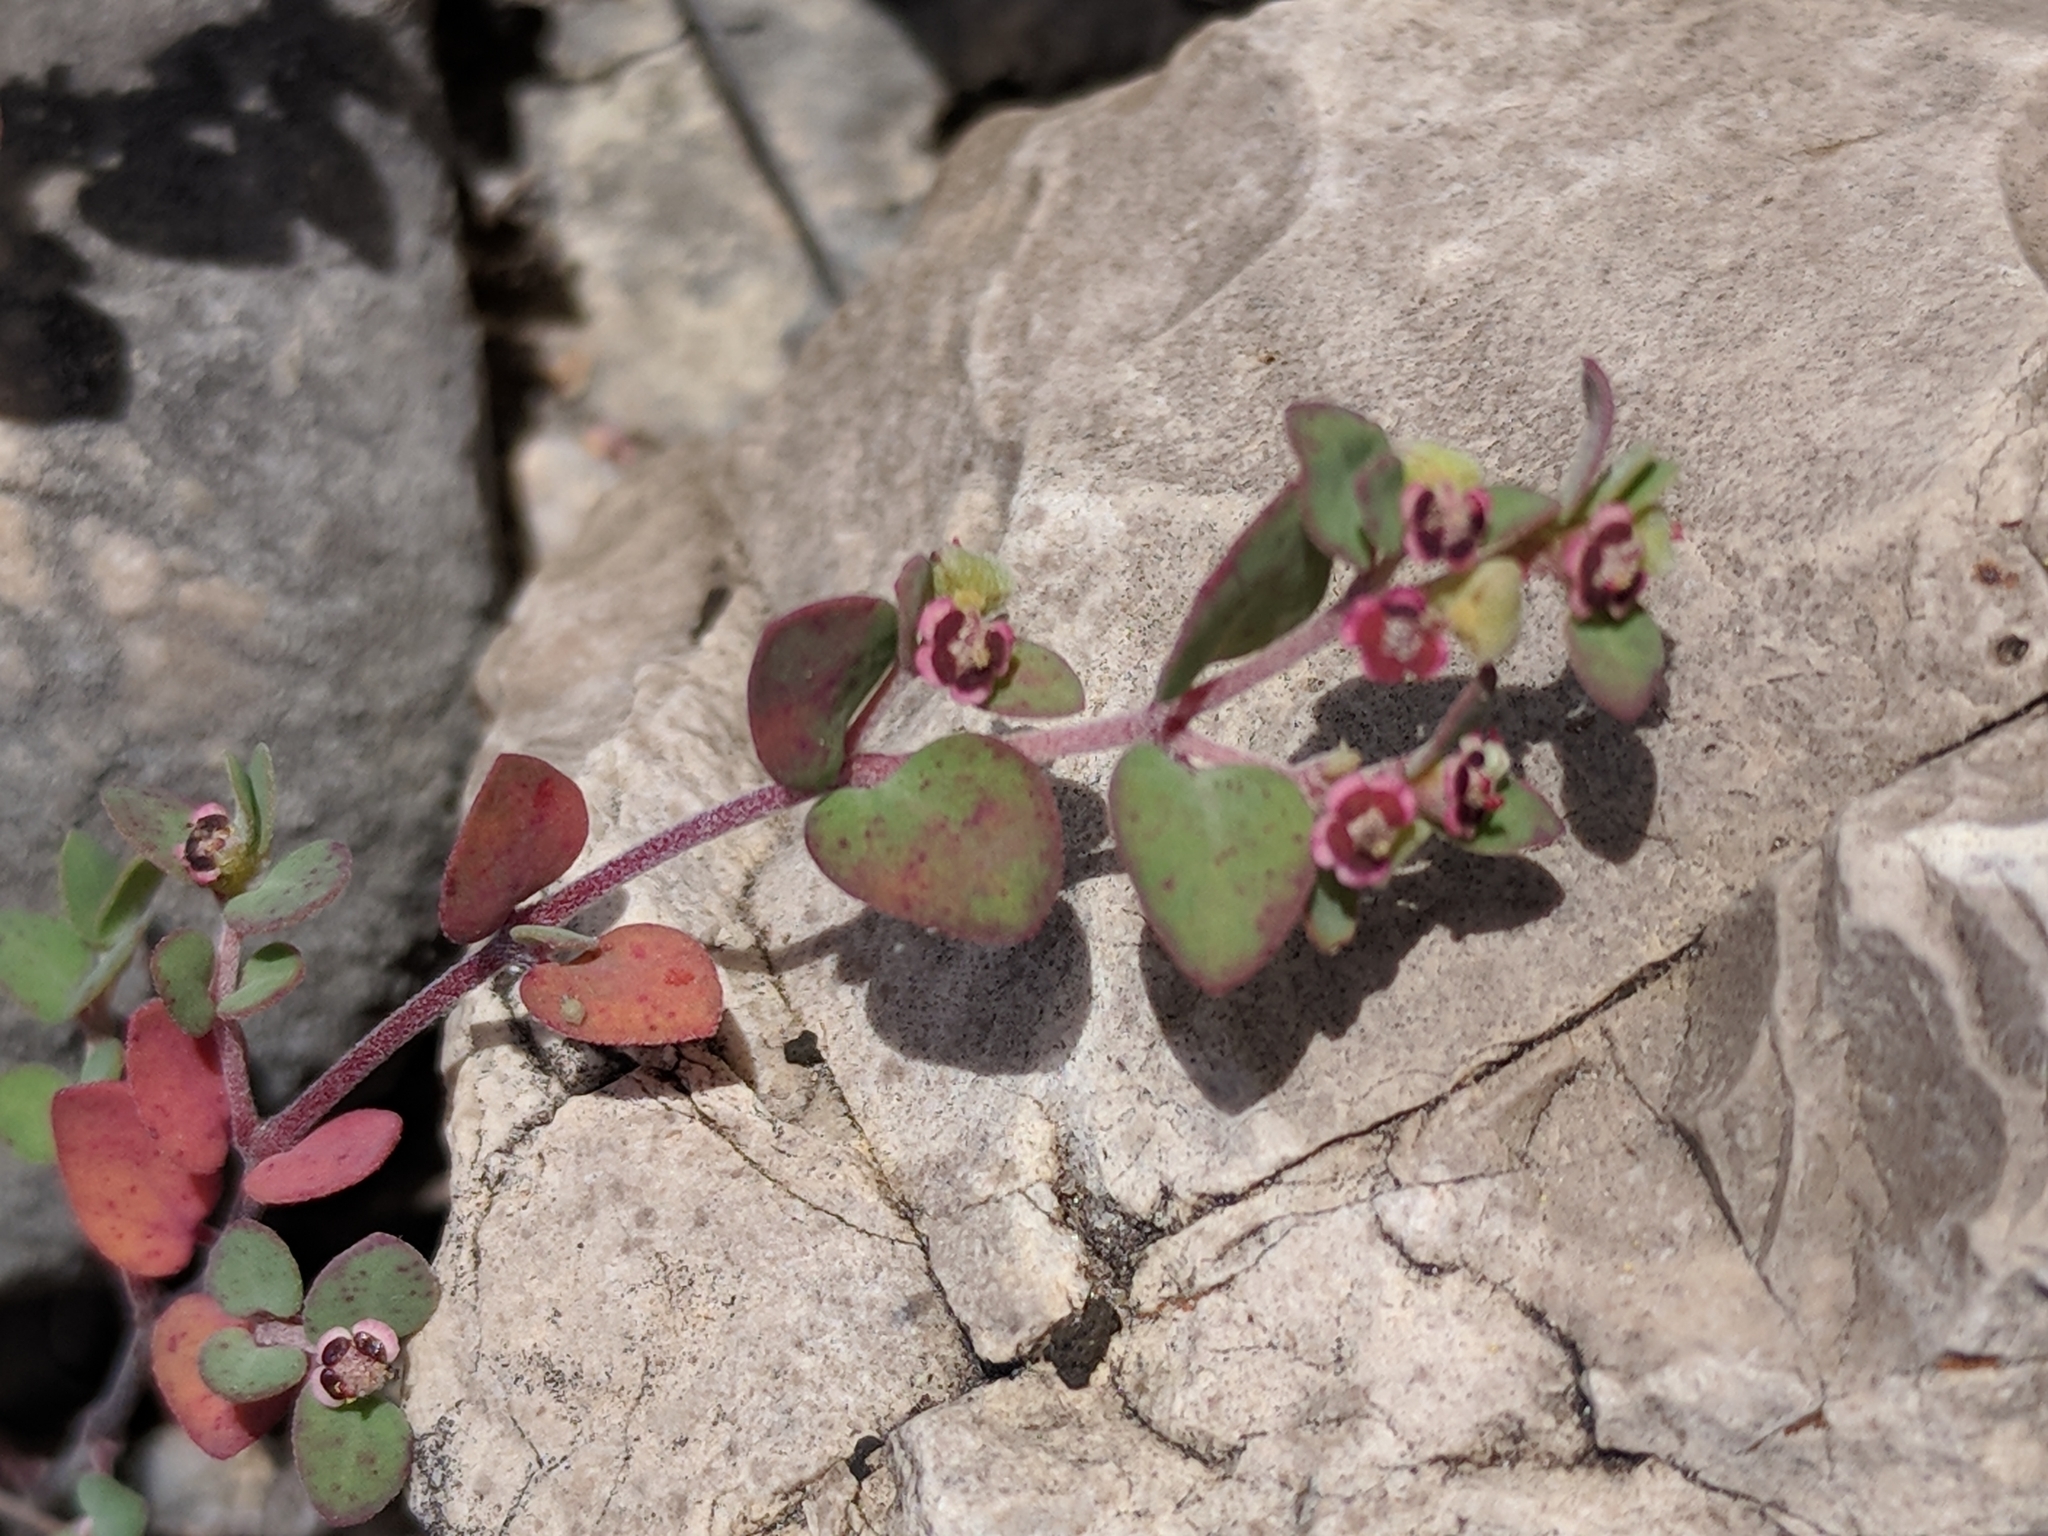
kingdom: Plantae
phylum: Tracheophyta
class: Magnoliopsida
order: Malpighiales
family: Euphorbiaceae
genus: Euphorbia
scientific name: Euphorbia cinerascens
